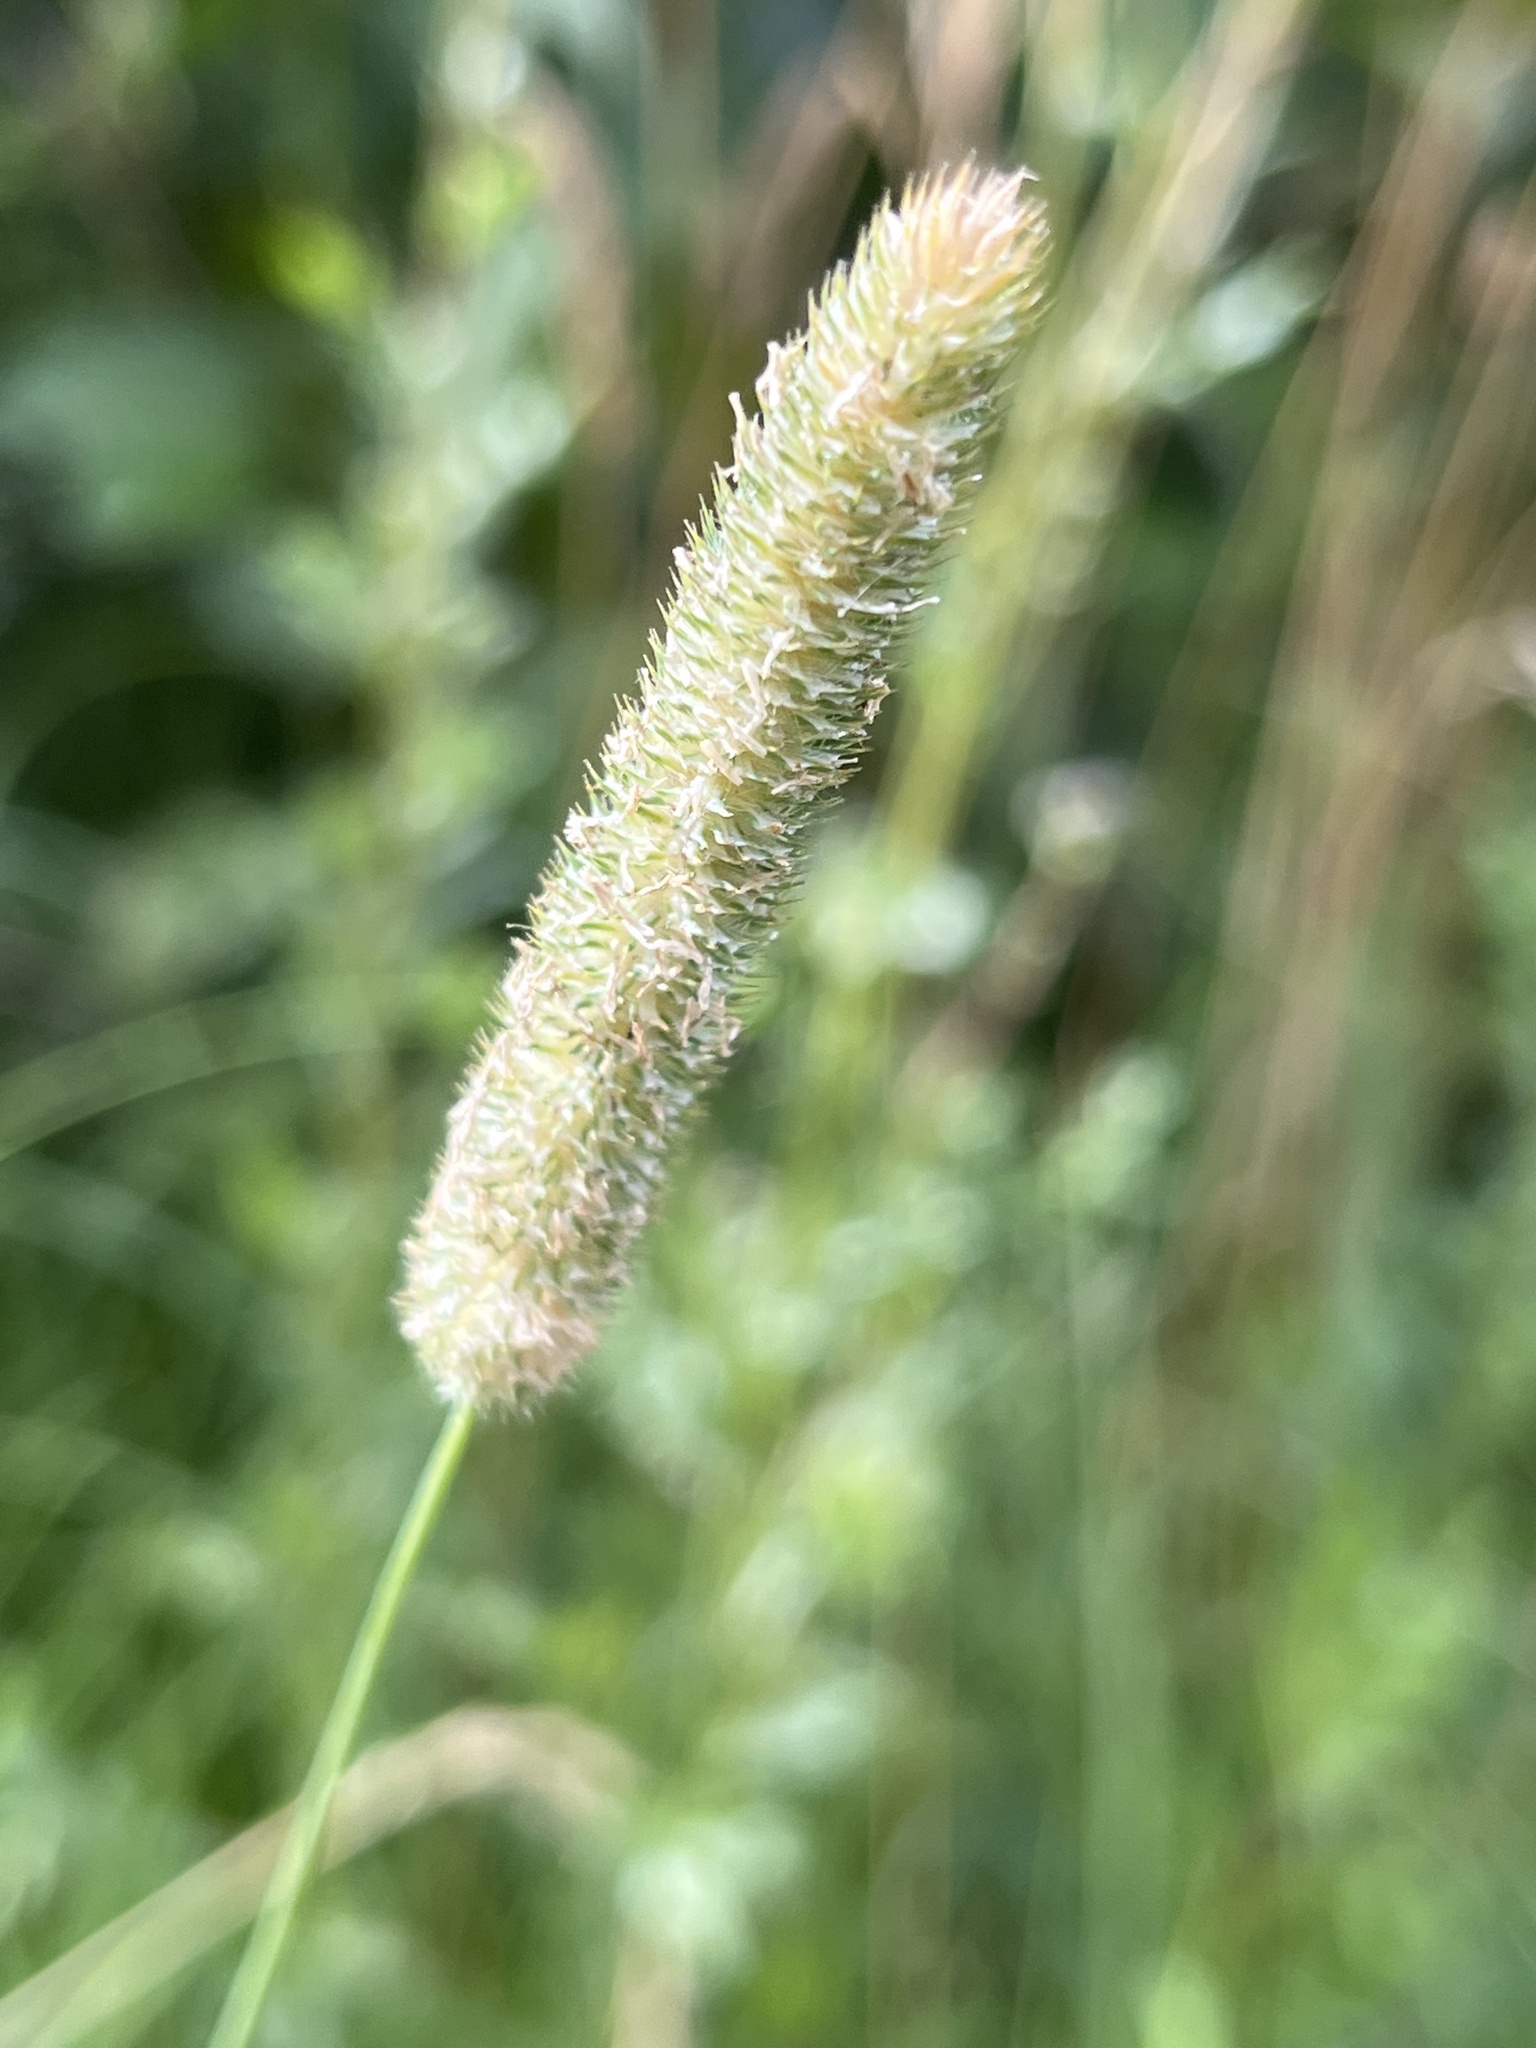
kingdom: Plantae
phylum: Tracheophyta
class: Liliopsida
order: Poales
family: Poaceae
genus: Phleum
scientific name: Phleum pratense
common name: Timothy grass
